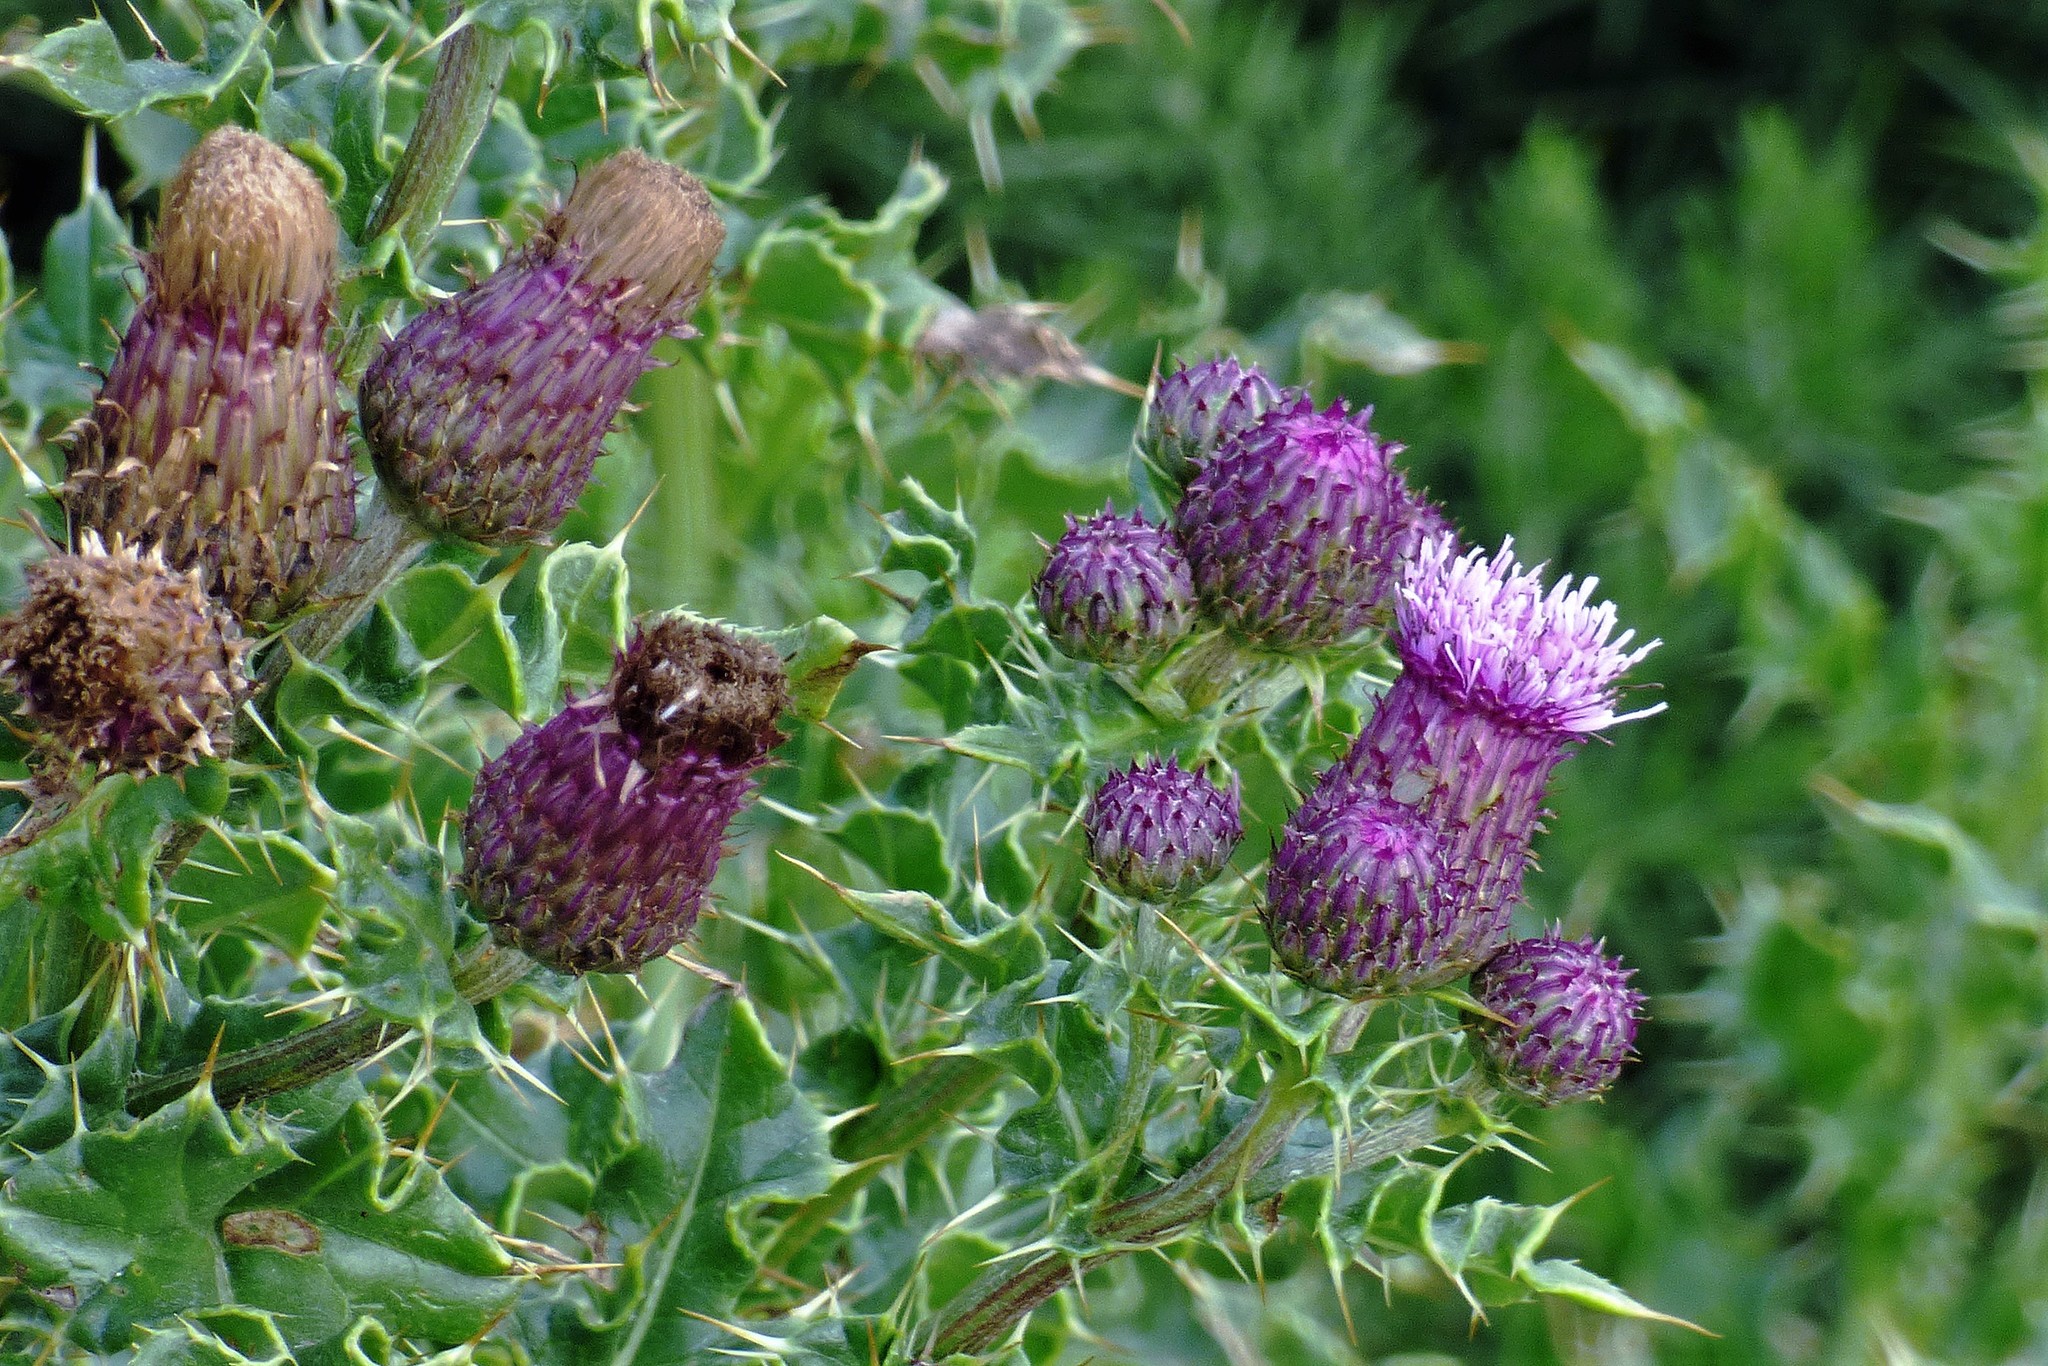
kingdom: Plantae
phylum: Tracheophyta
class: Magnoliopsida
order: Asterales
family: Asteraceae
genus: Cirsium
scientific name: Cirsium arvense
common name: Creeping thistle
